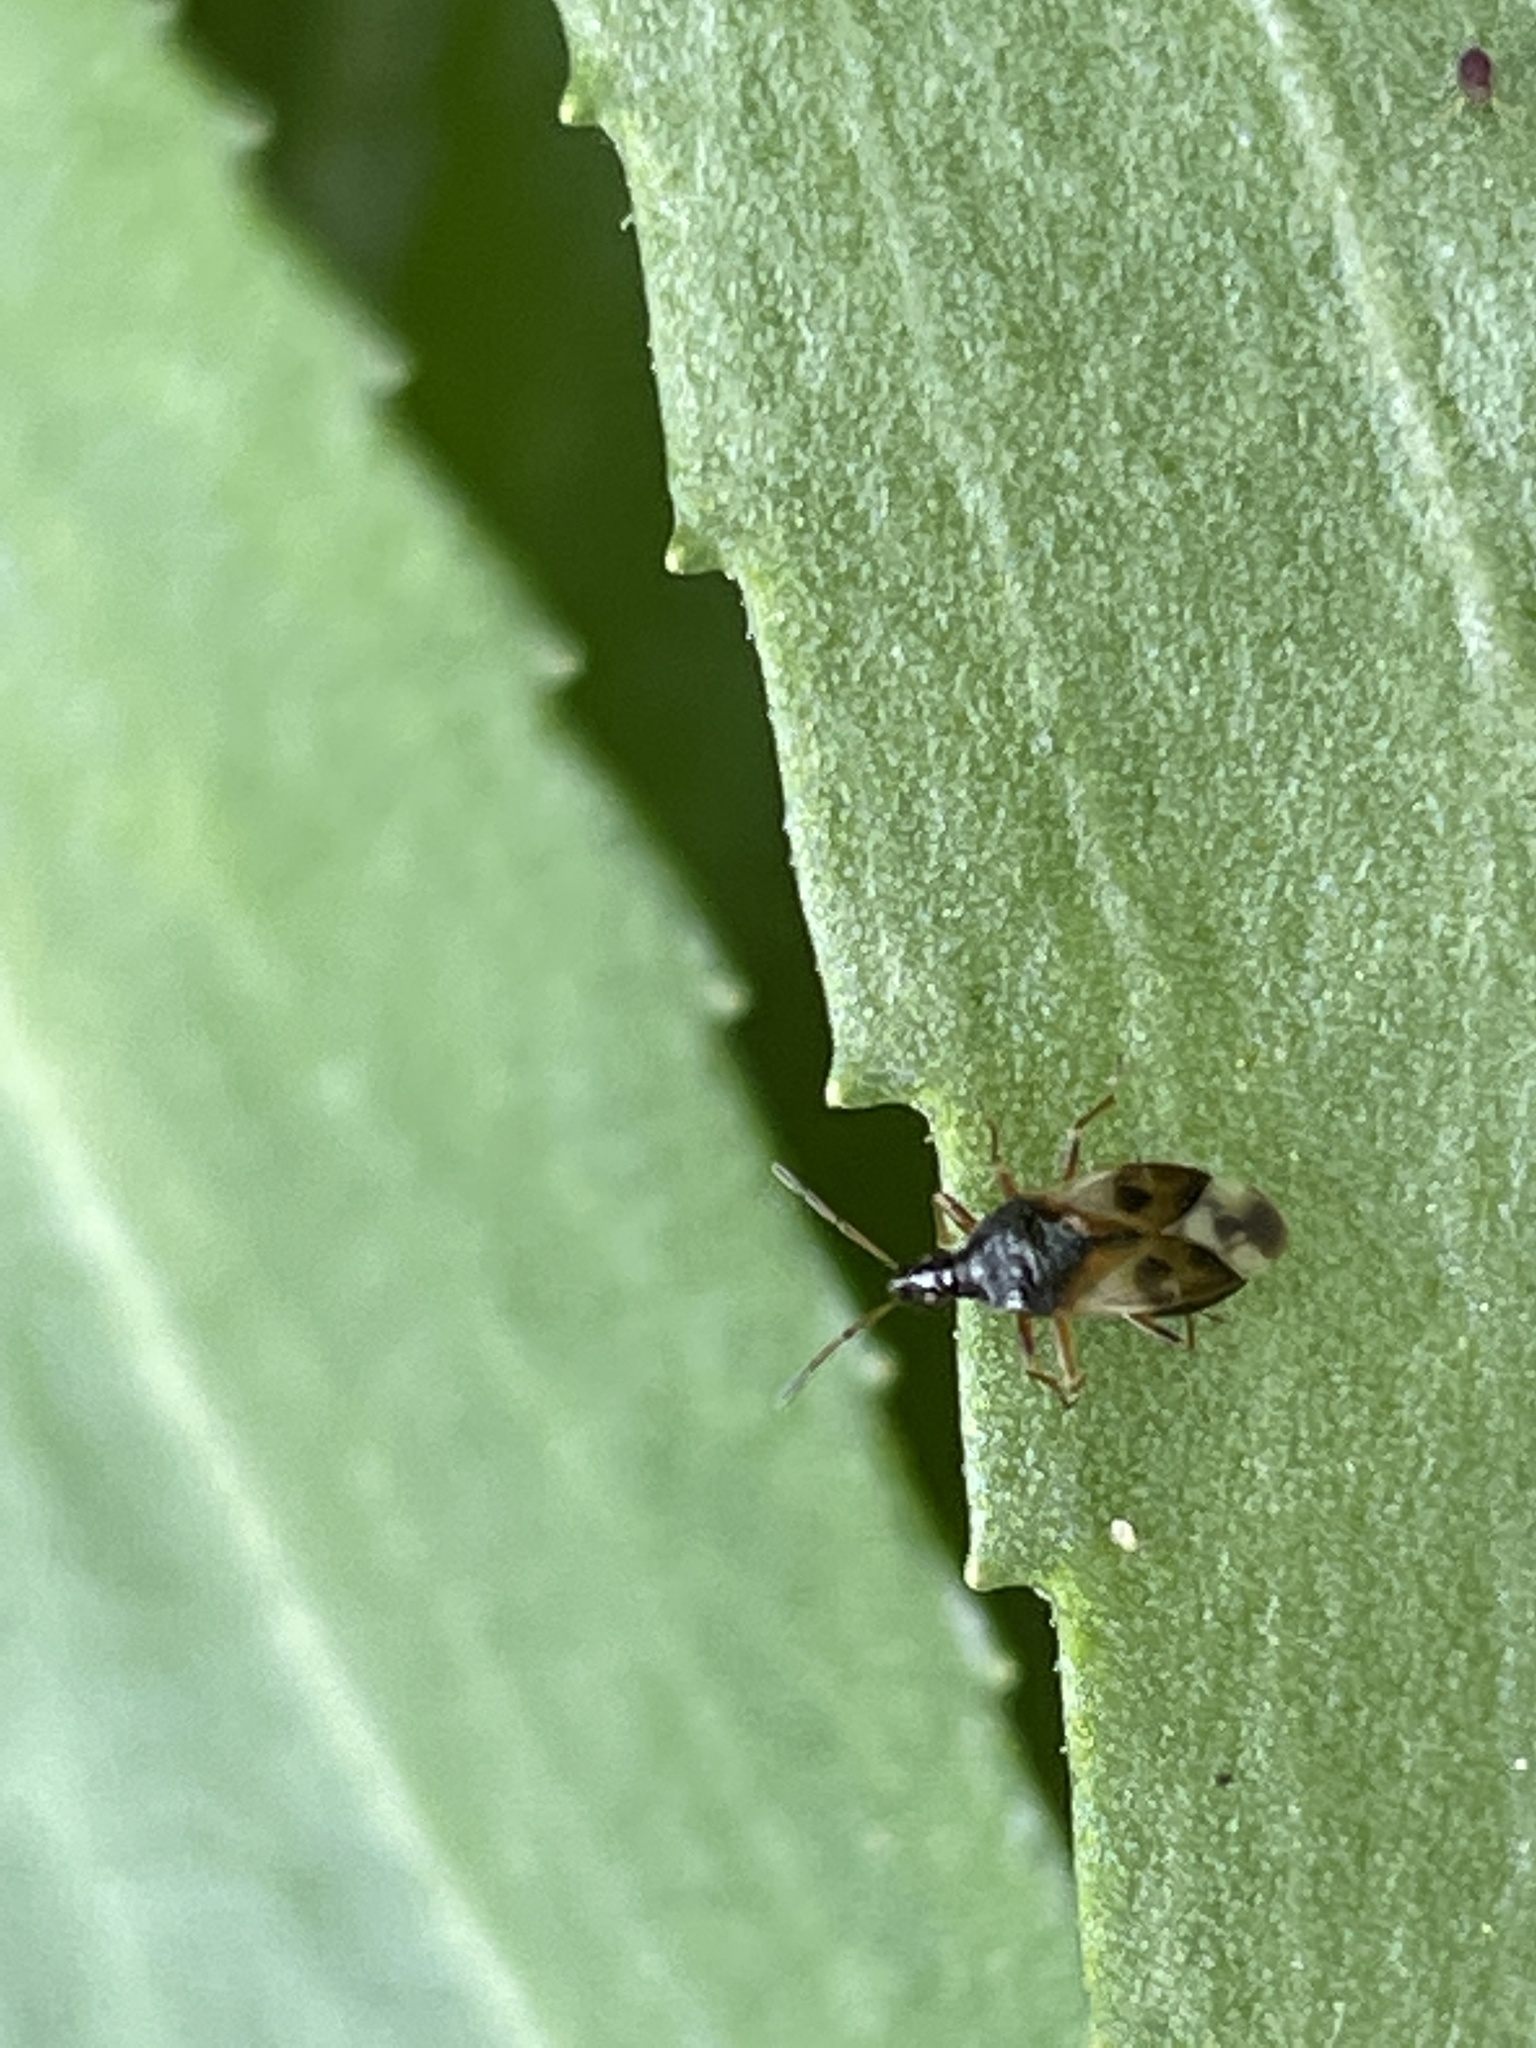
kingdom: Animalia
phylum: Arthropoda
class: Insecta
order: Hemiptera
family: Anthocoridae
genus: Anthocoris
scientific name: Anthocoris nemorum
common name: Minute pirate bug
